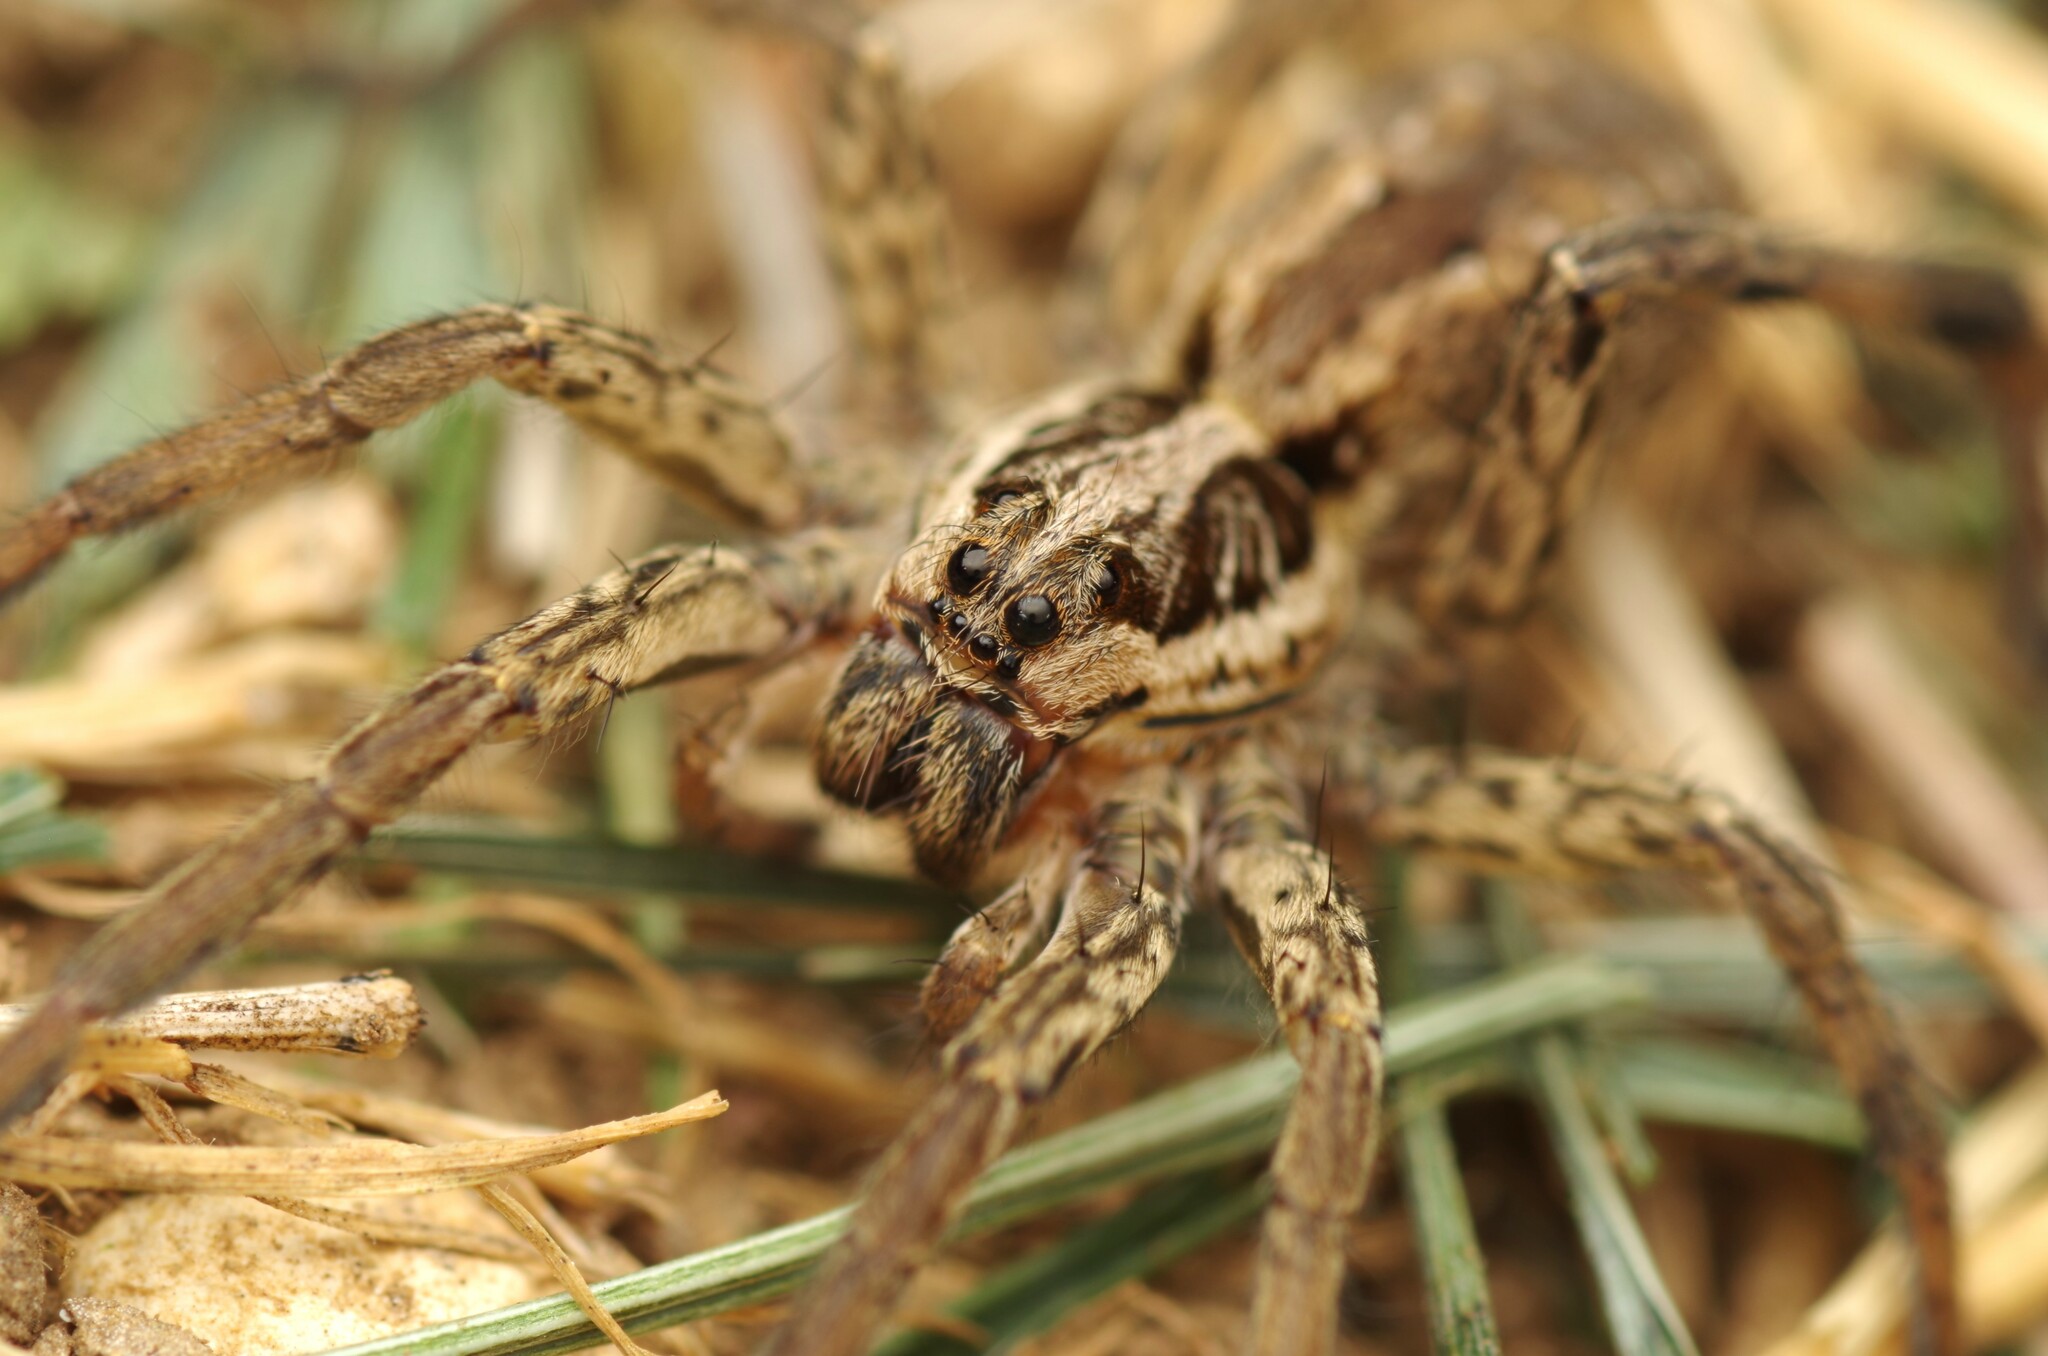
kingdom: Animalia
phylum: Arthropoda
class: Arachnida
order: Araneae
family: Lycosidae
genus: Hogna
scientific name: Hogna radiata
